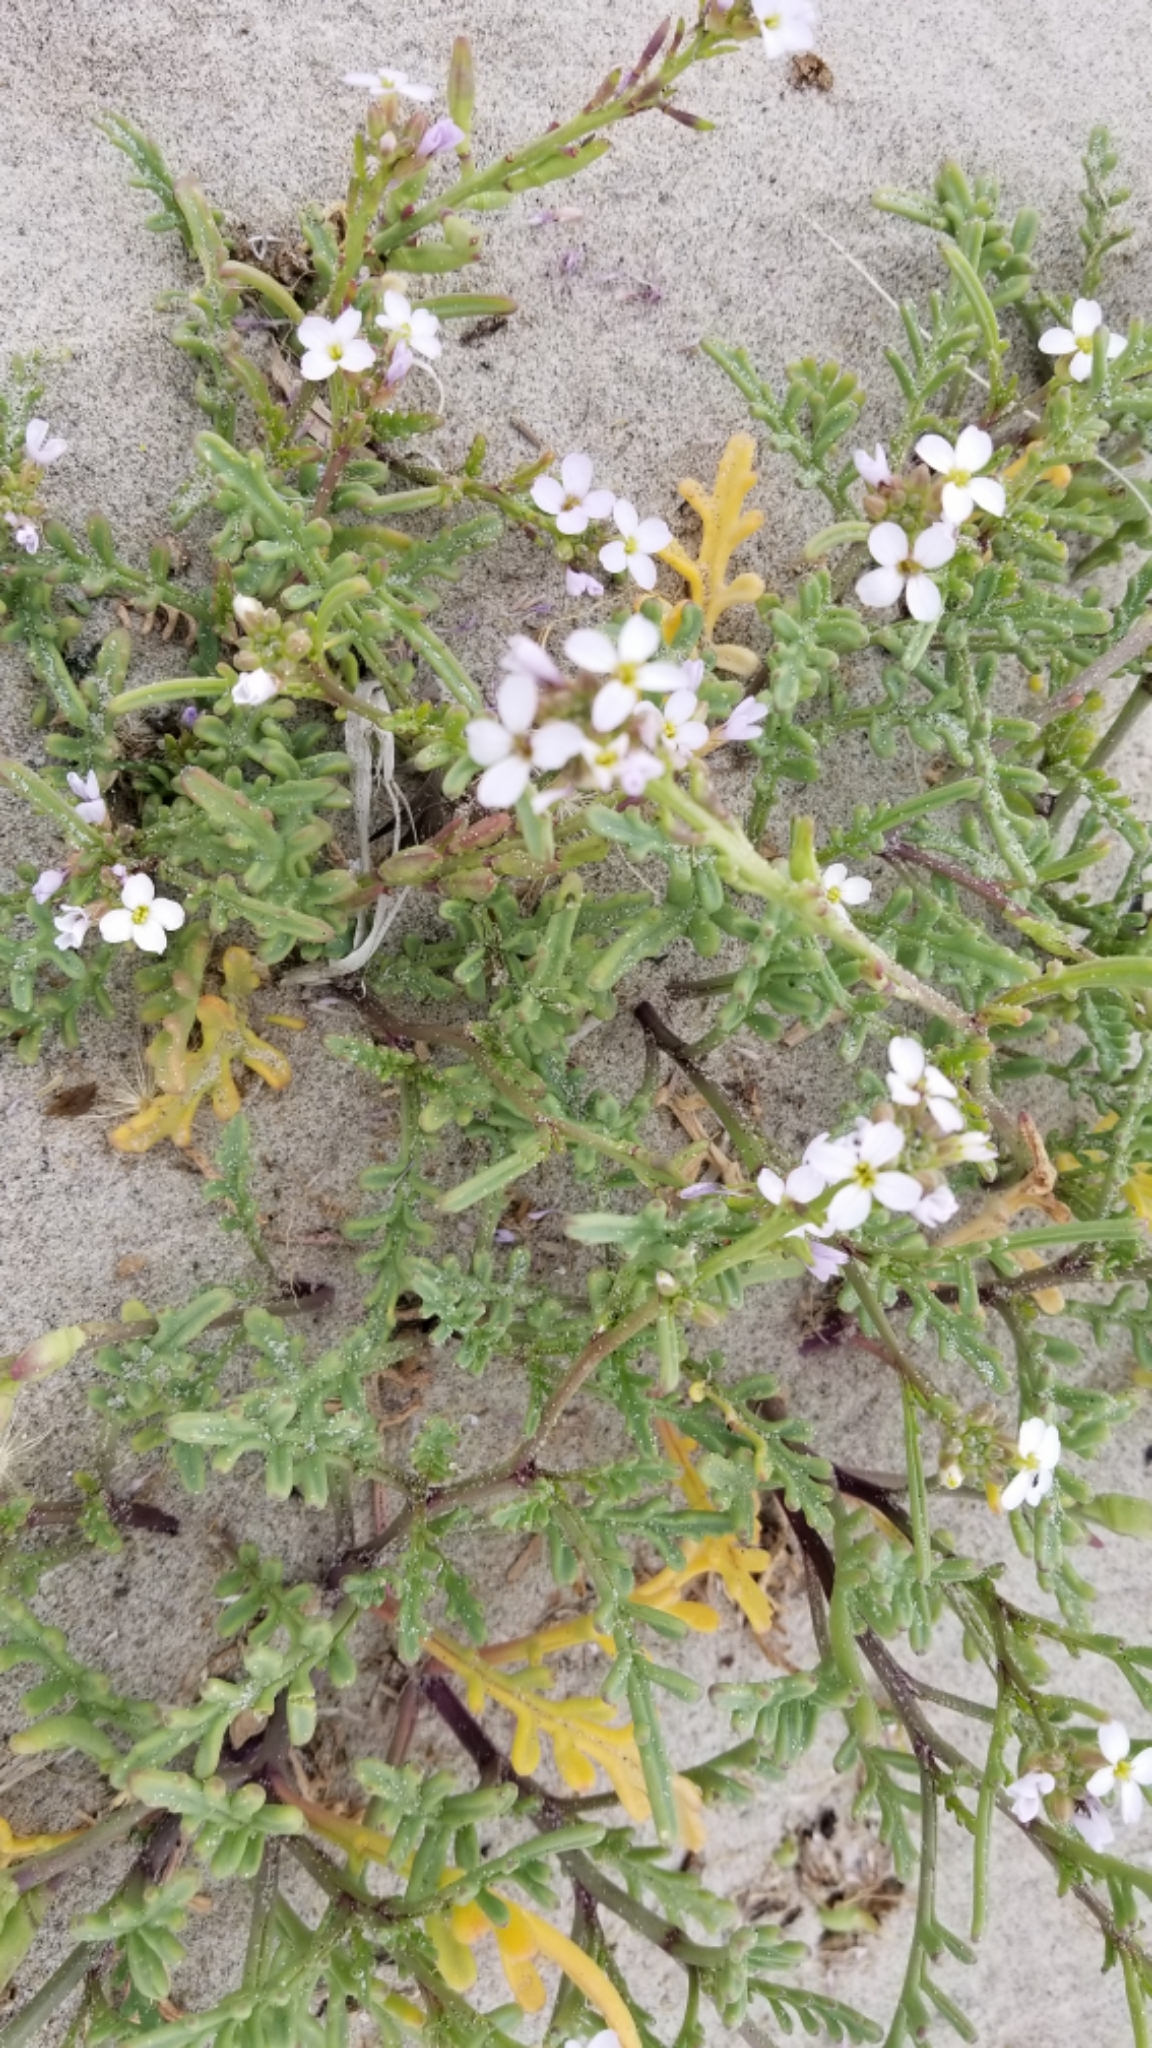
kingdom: Plantae
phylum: Tracheophyta
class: Magnoliopsida
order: Brassicales
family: Brassicaceae
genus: Cakile
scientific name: Cakile maritima
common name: Sea rocket
